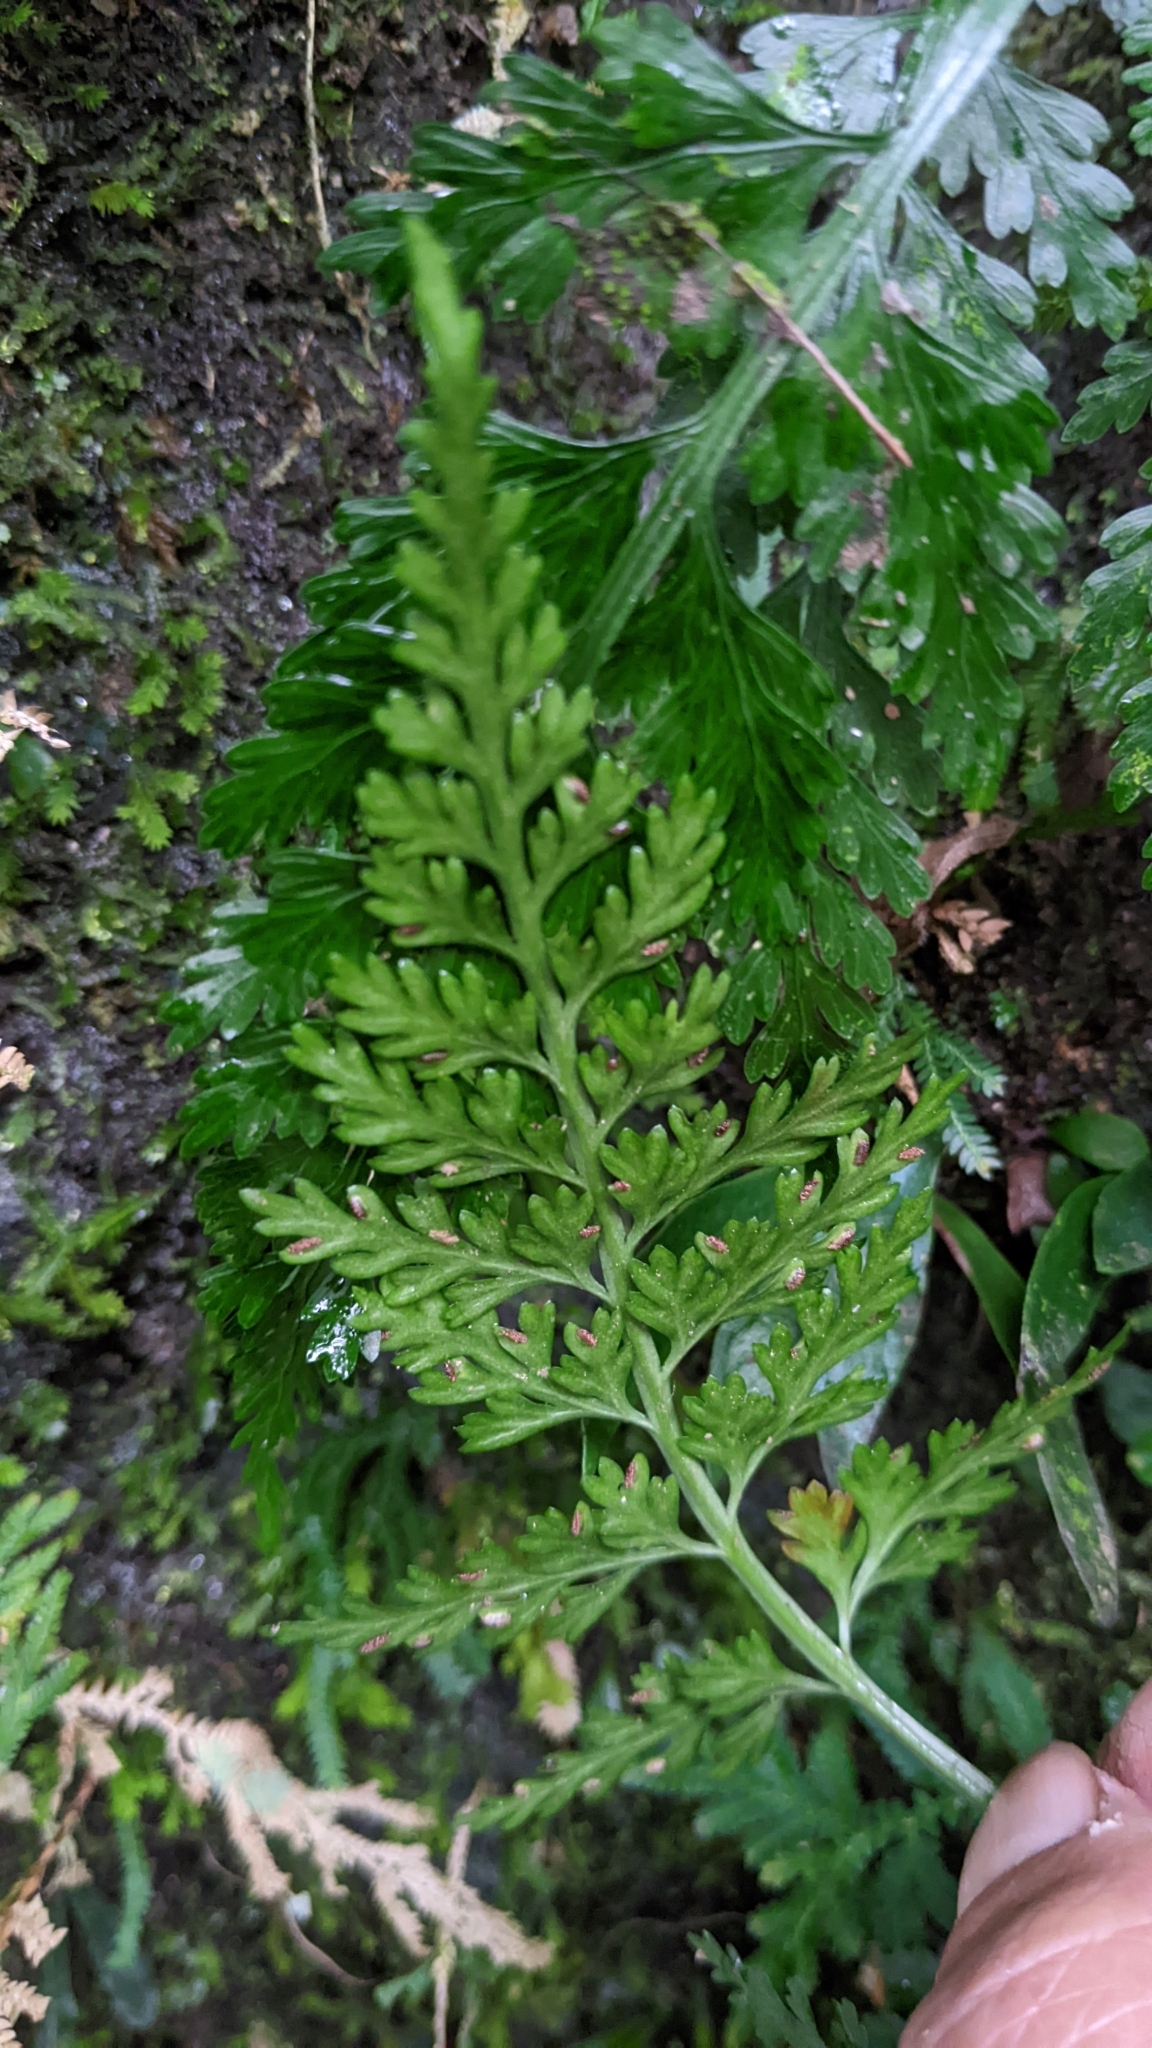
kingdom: Plantae
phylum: Tracheophyta
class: Polypodiopsida
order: Polypodiales
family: Aspleniaceae
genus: Asplenium
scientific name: Asplenium ritoense
